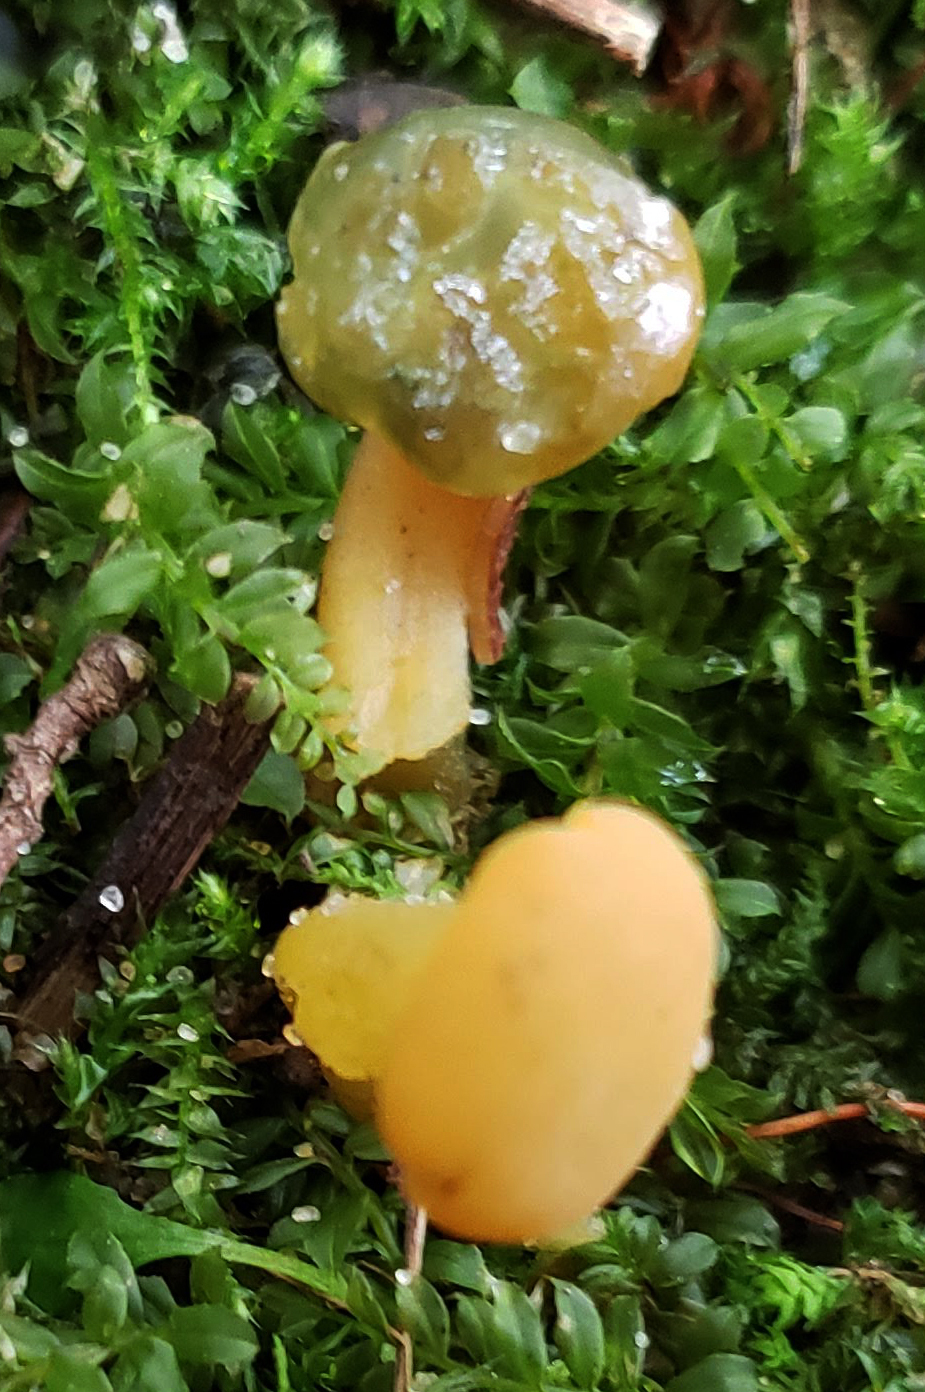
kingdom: Fungi
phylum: Ascomycota
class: Leotiomycetes
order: Leotiales
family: Leotiaceae
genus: Leotia
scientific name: Leotia lubrica
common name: Jellybaby
